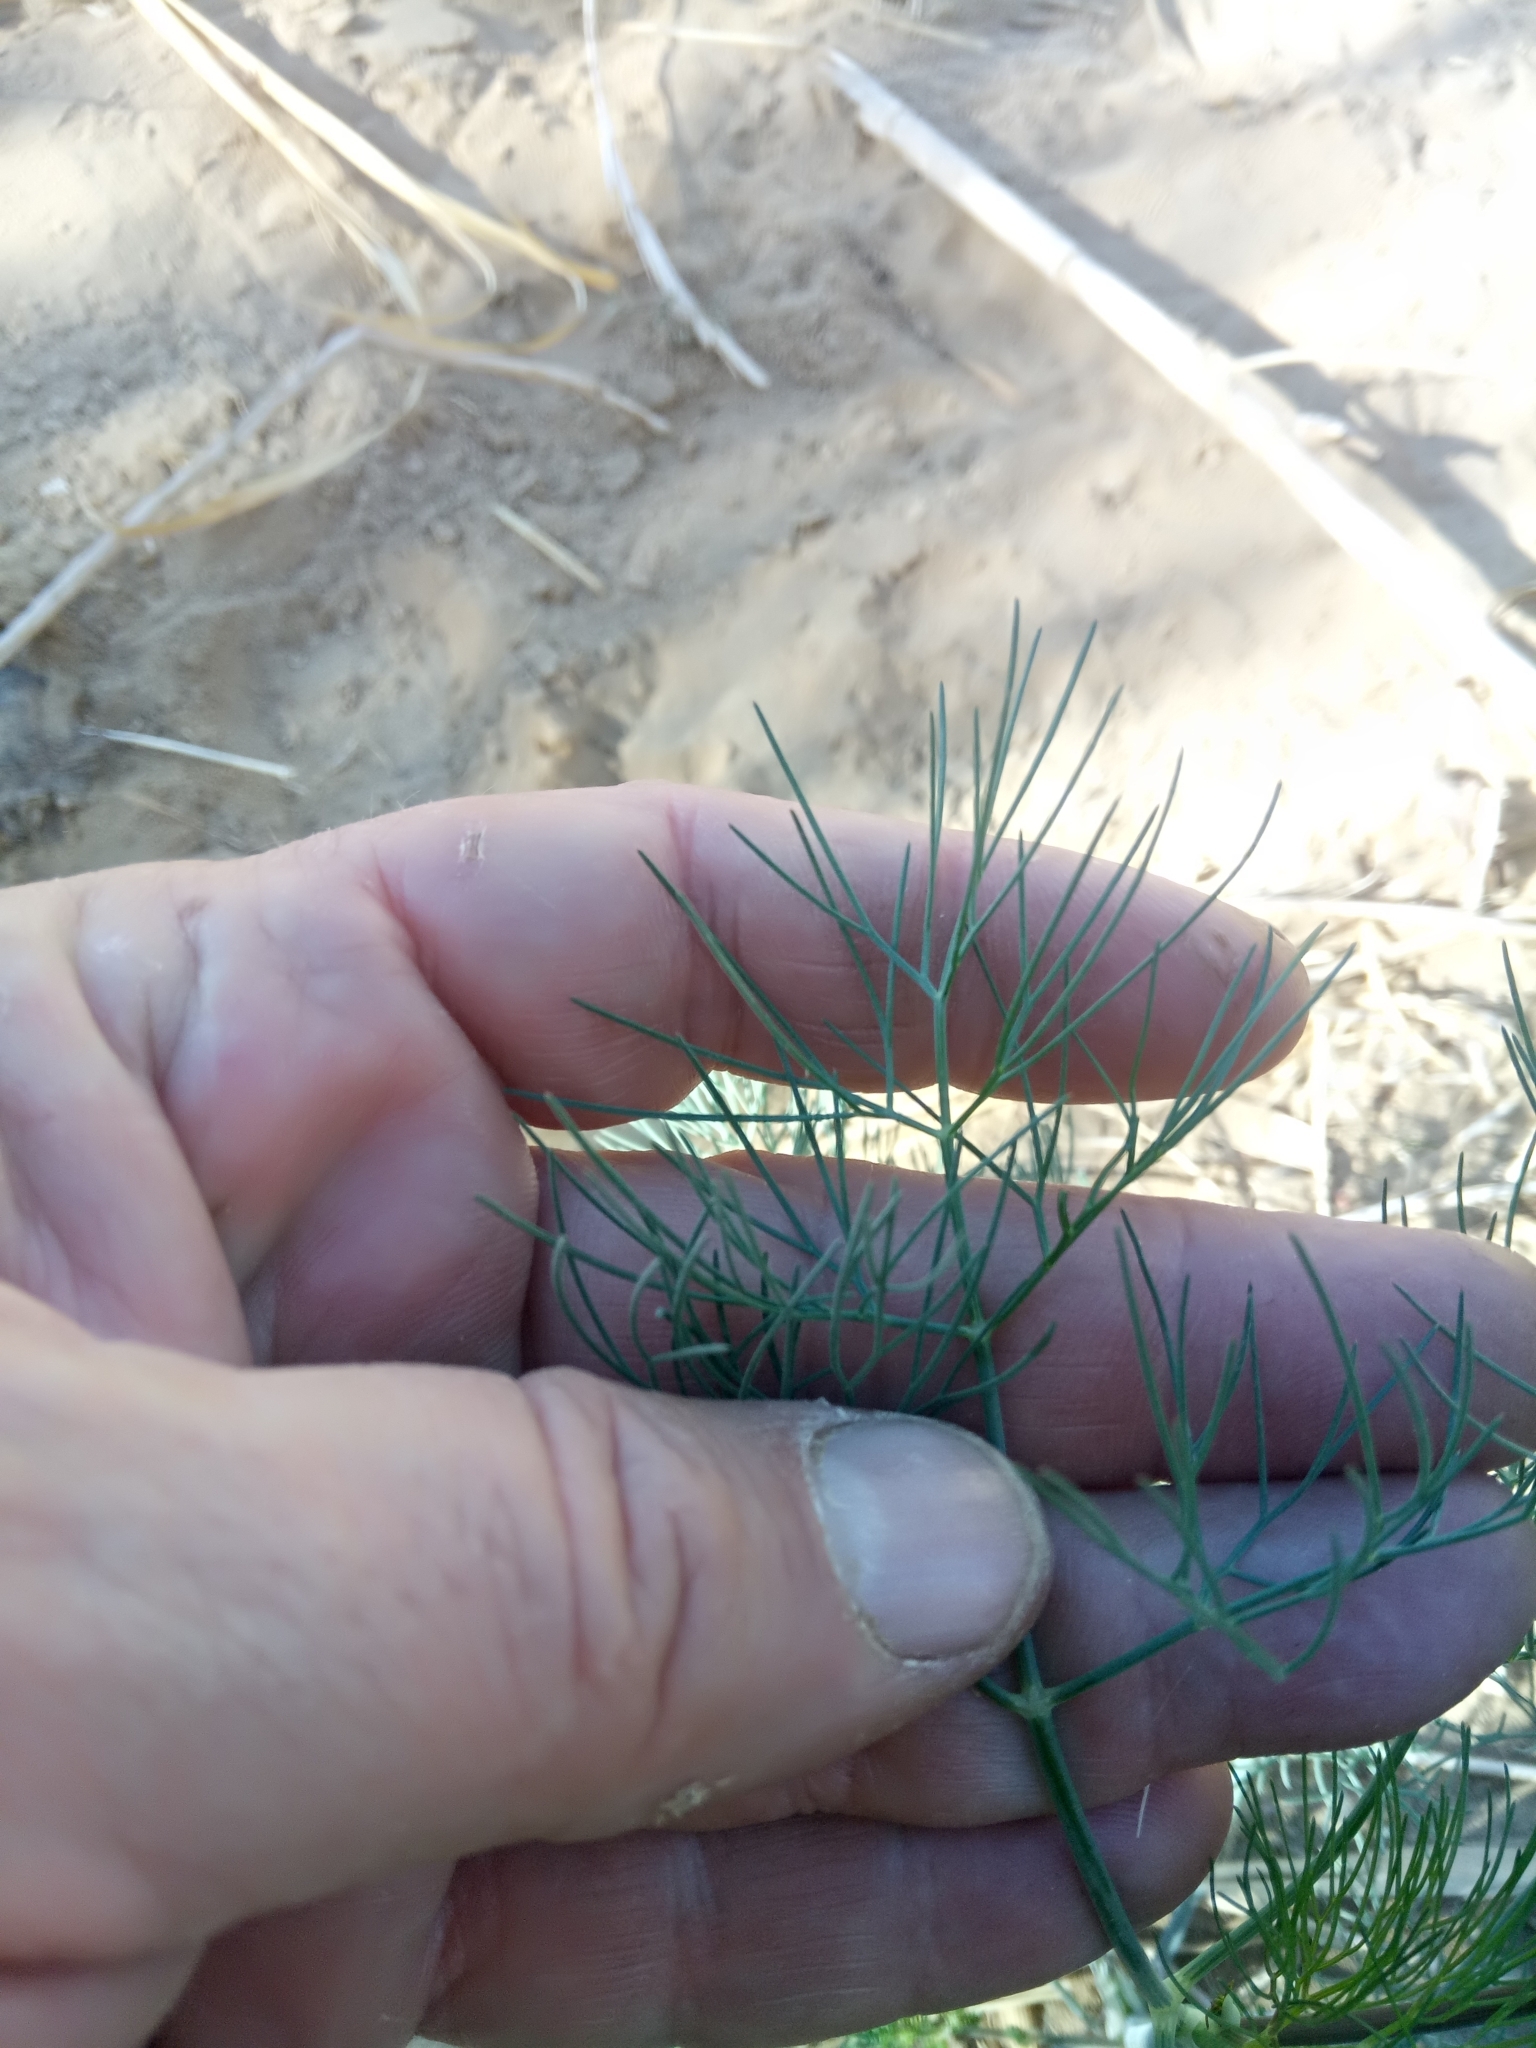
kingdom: Plantae
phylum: Tracheophyta
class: Magnoliopsida
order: Apiales
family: Apiaceae
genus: Foeniculum
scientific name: Foeniculum vulgare
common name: Fennel
